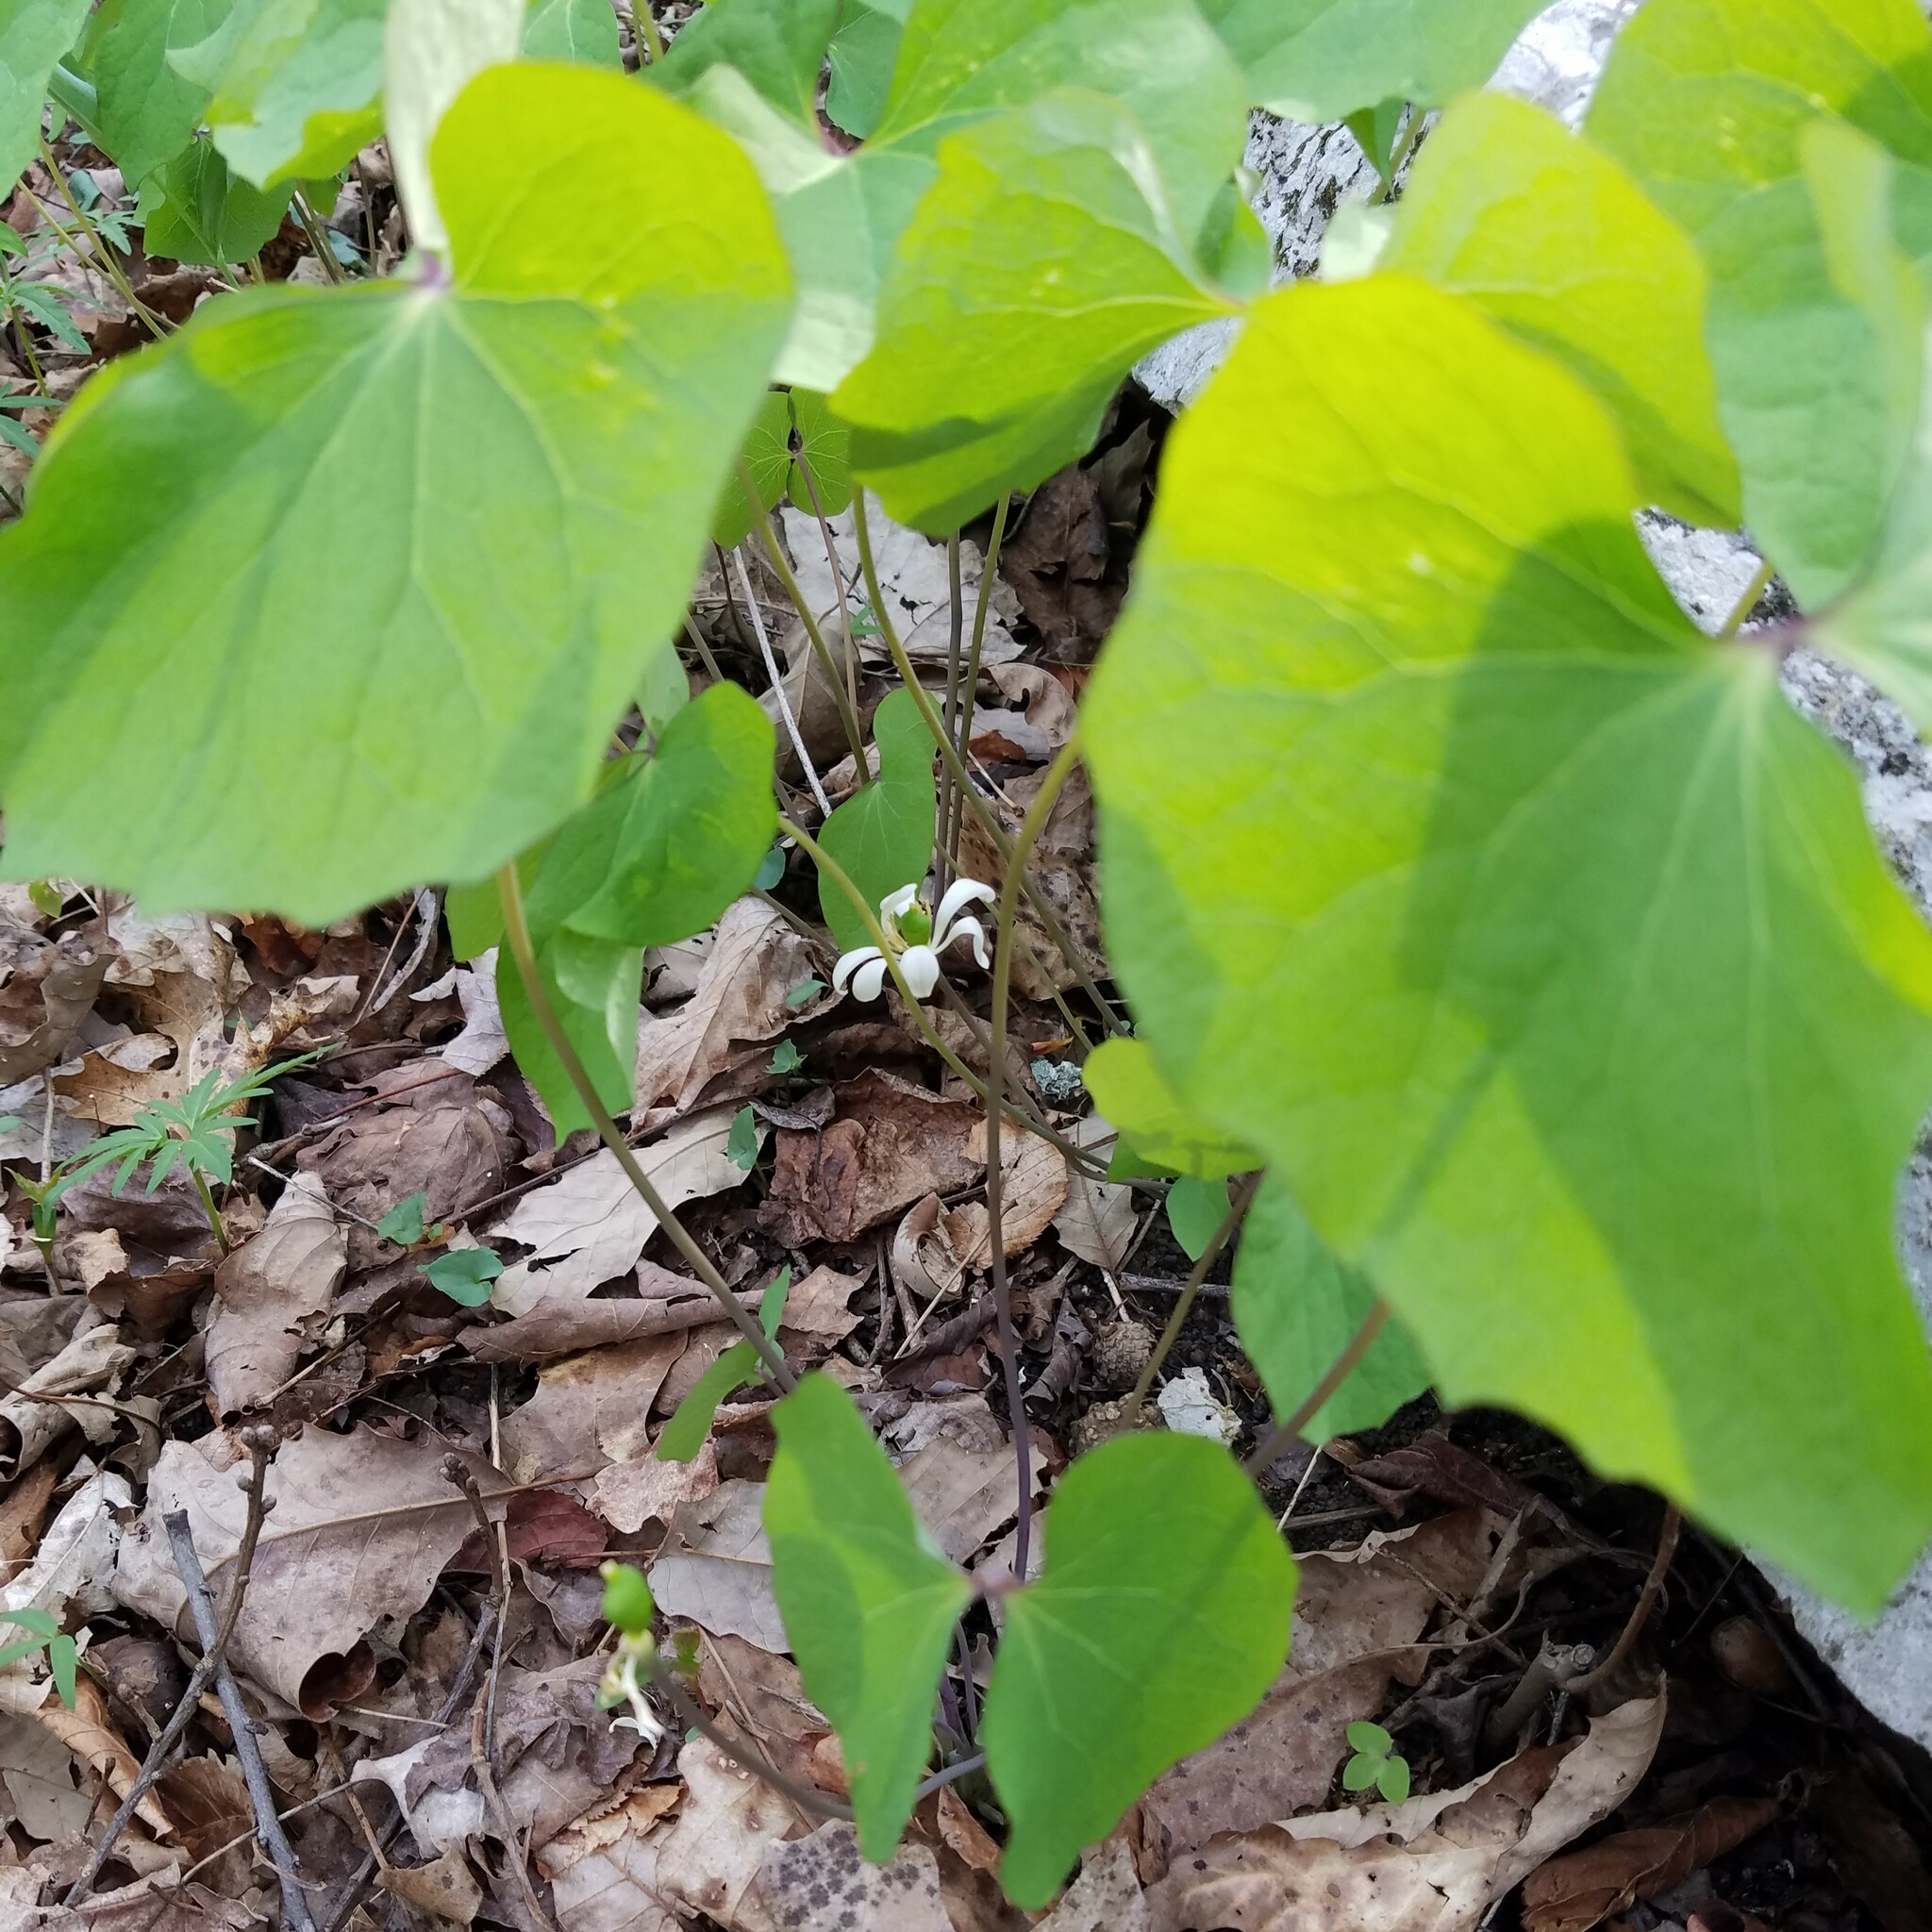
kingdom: Plantae
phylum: Tracheophyta
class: Magnoliopsida
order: Ranunculales
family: Berberidaceae
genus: Jeffersonia
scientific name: Jeffersonia diphylla
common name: Rheumatism-root
